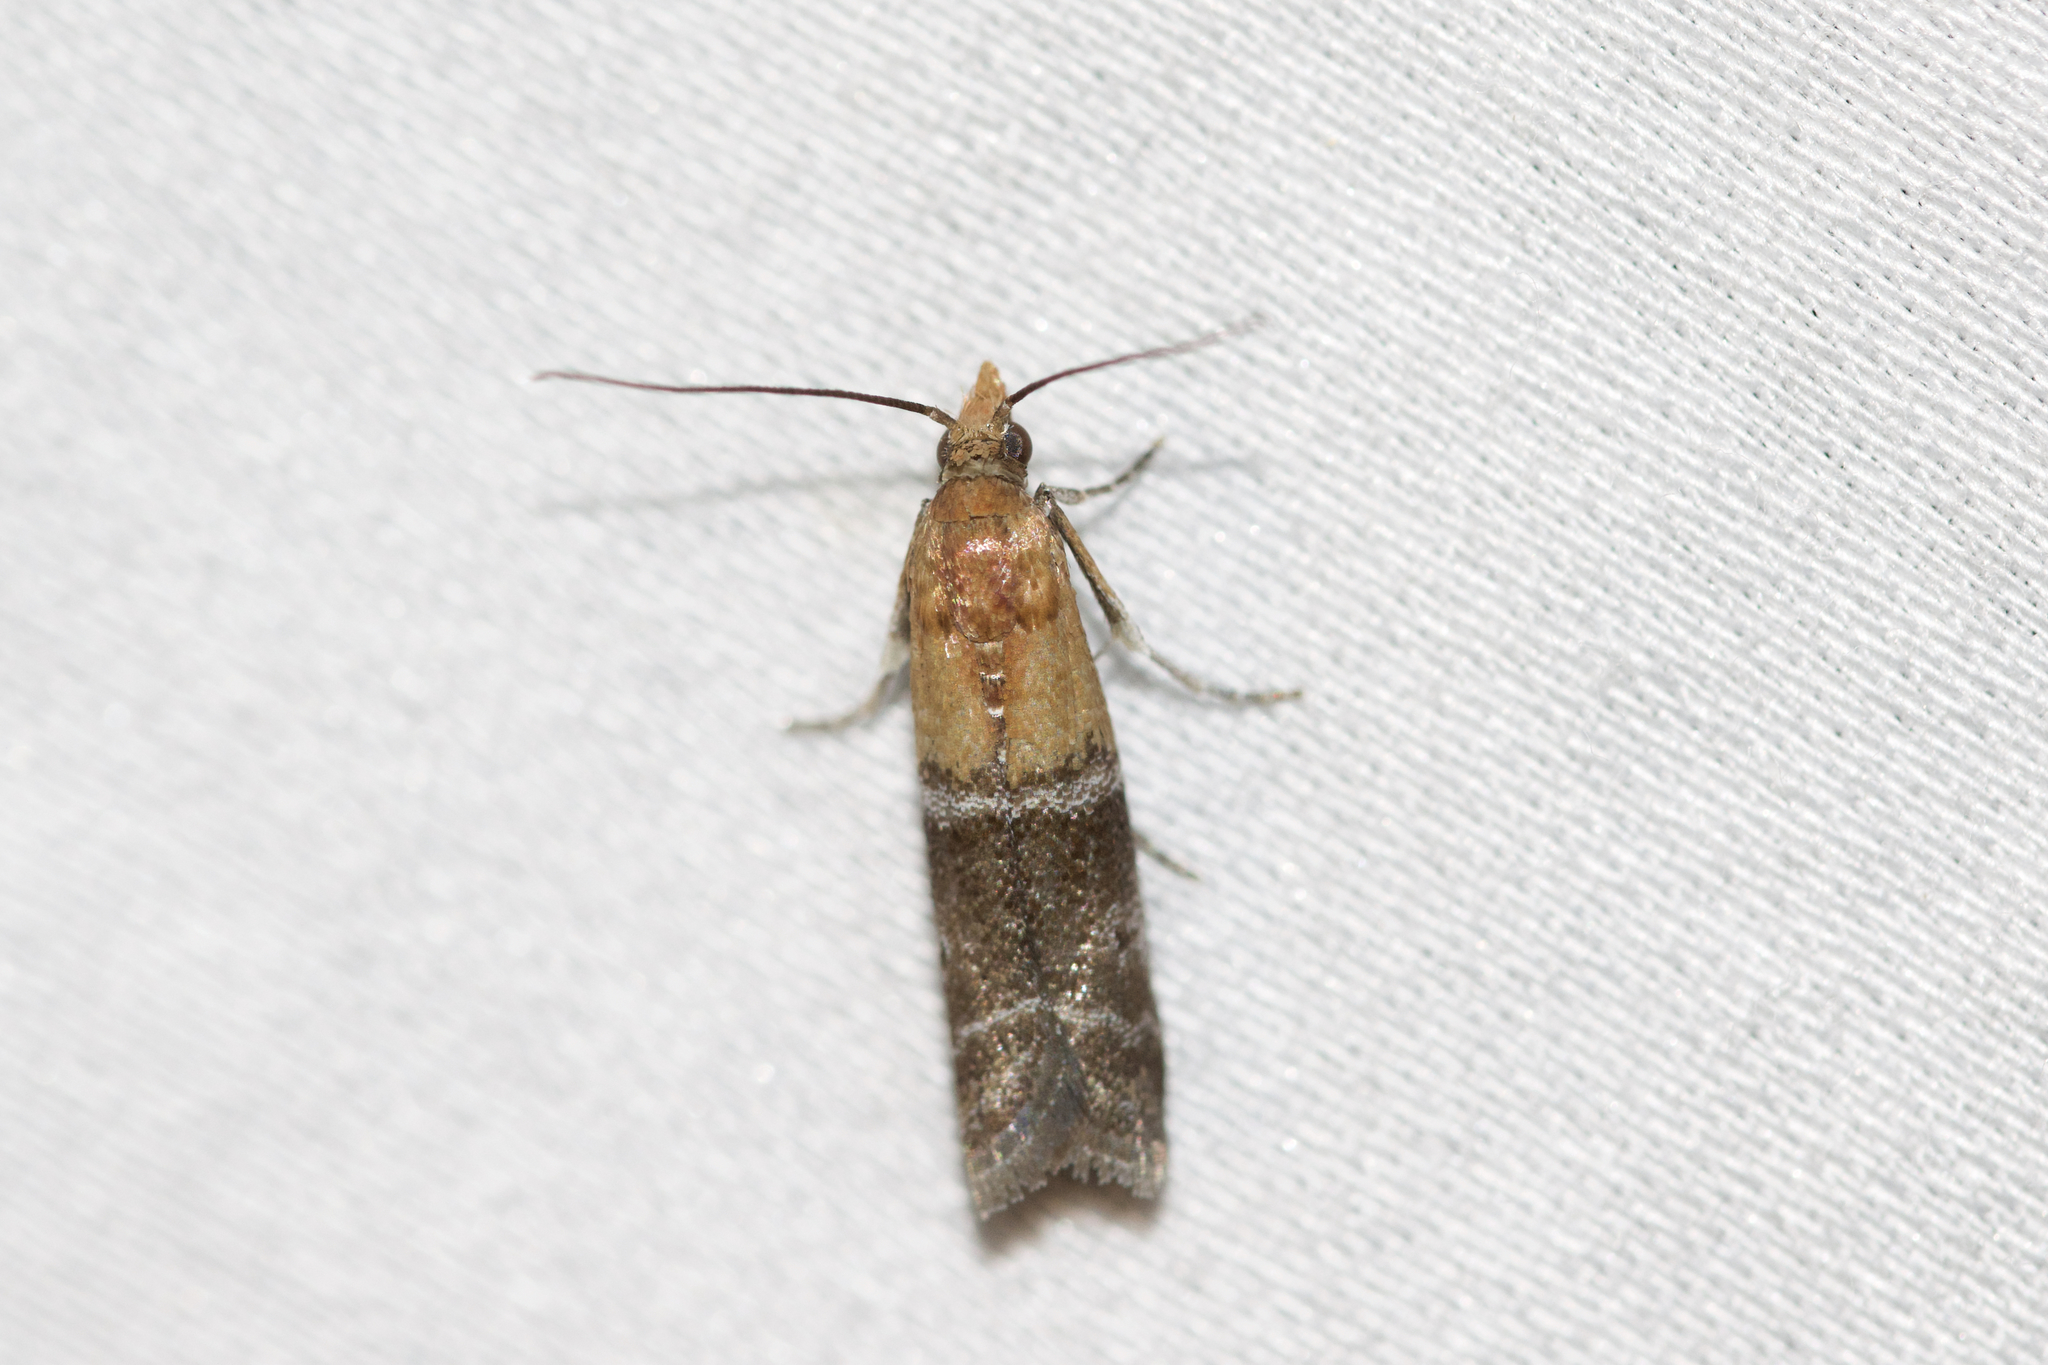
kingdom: Animalia
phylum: Arthropoda
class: Insecta
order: Lepidoptera
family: Pyralidae
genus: Moodna
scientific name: Moodna pallidostrinella
